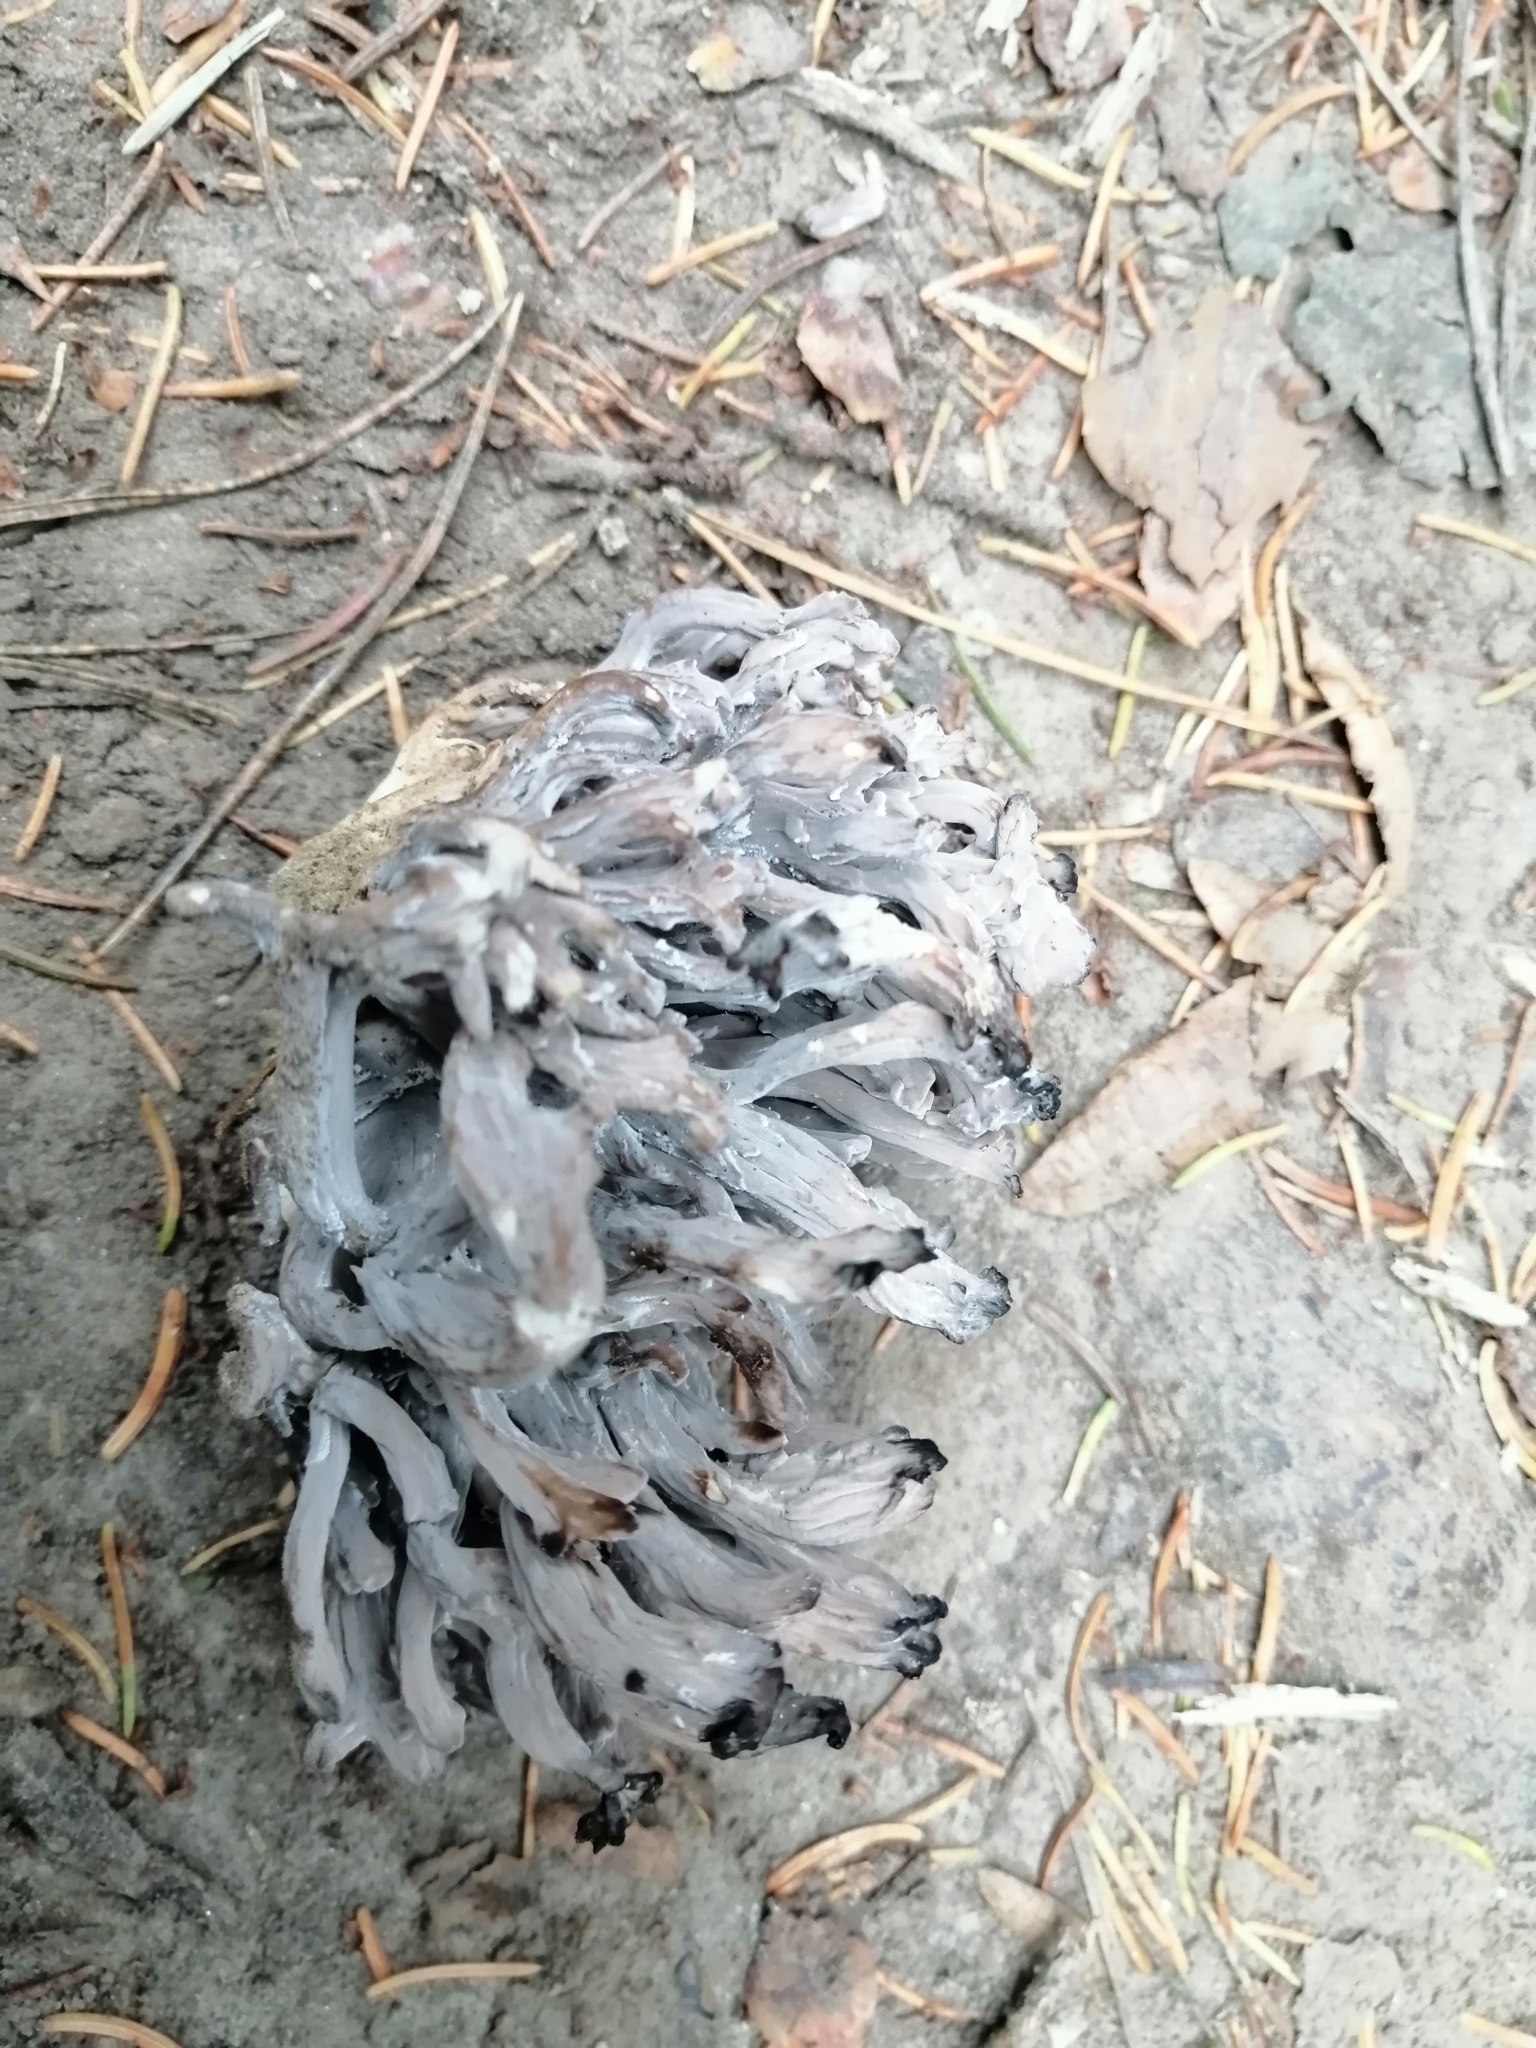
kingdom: Fungi
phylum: Basidiomycota
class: Agaricomycetes
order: Cantharellales
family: Hydnaceae
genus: Clavulina
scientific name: Clavulina cinerea
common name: Grey coral
